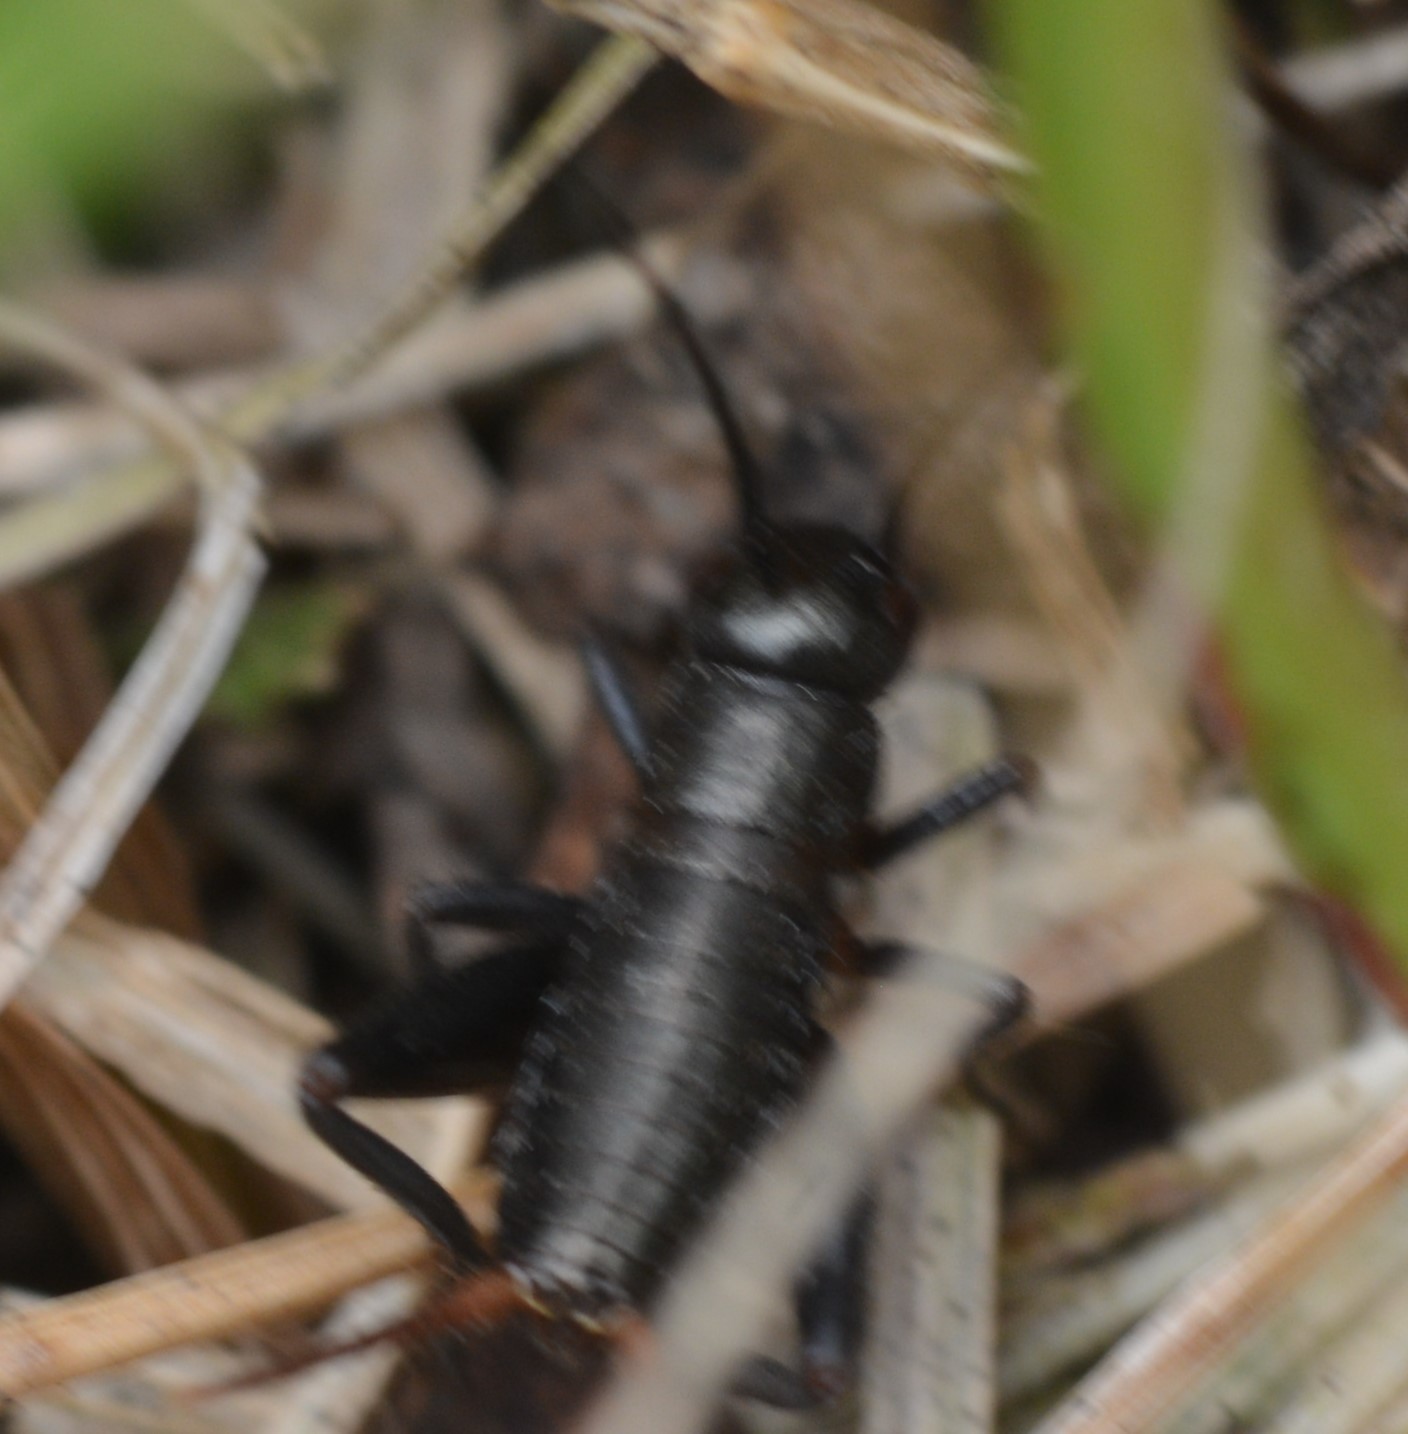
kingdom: Animalia
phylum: Arthropoda
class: Insecta
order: Orthoptera
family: Gryllidae
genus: Gryllus
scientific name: Gryllus pennsylvanicus
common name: Fall field cricket
